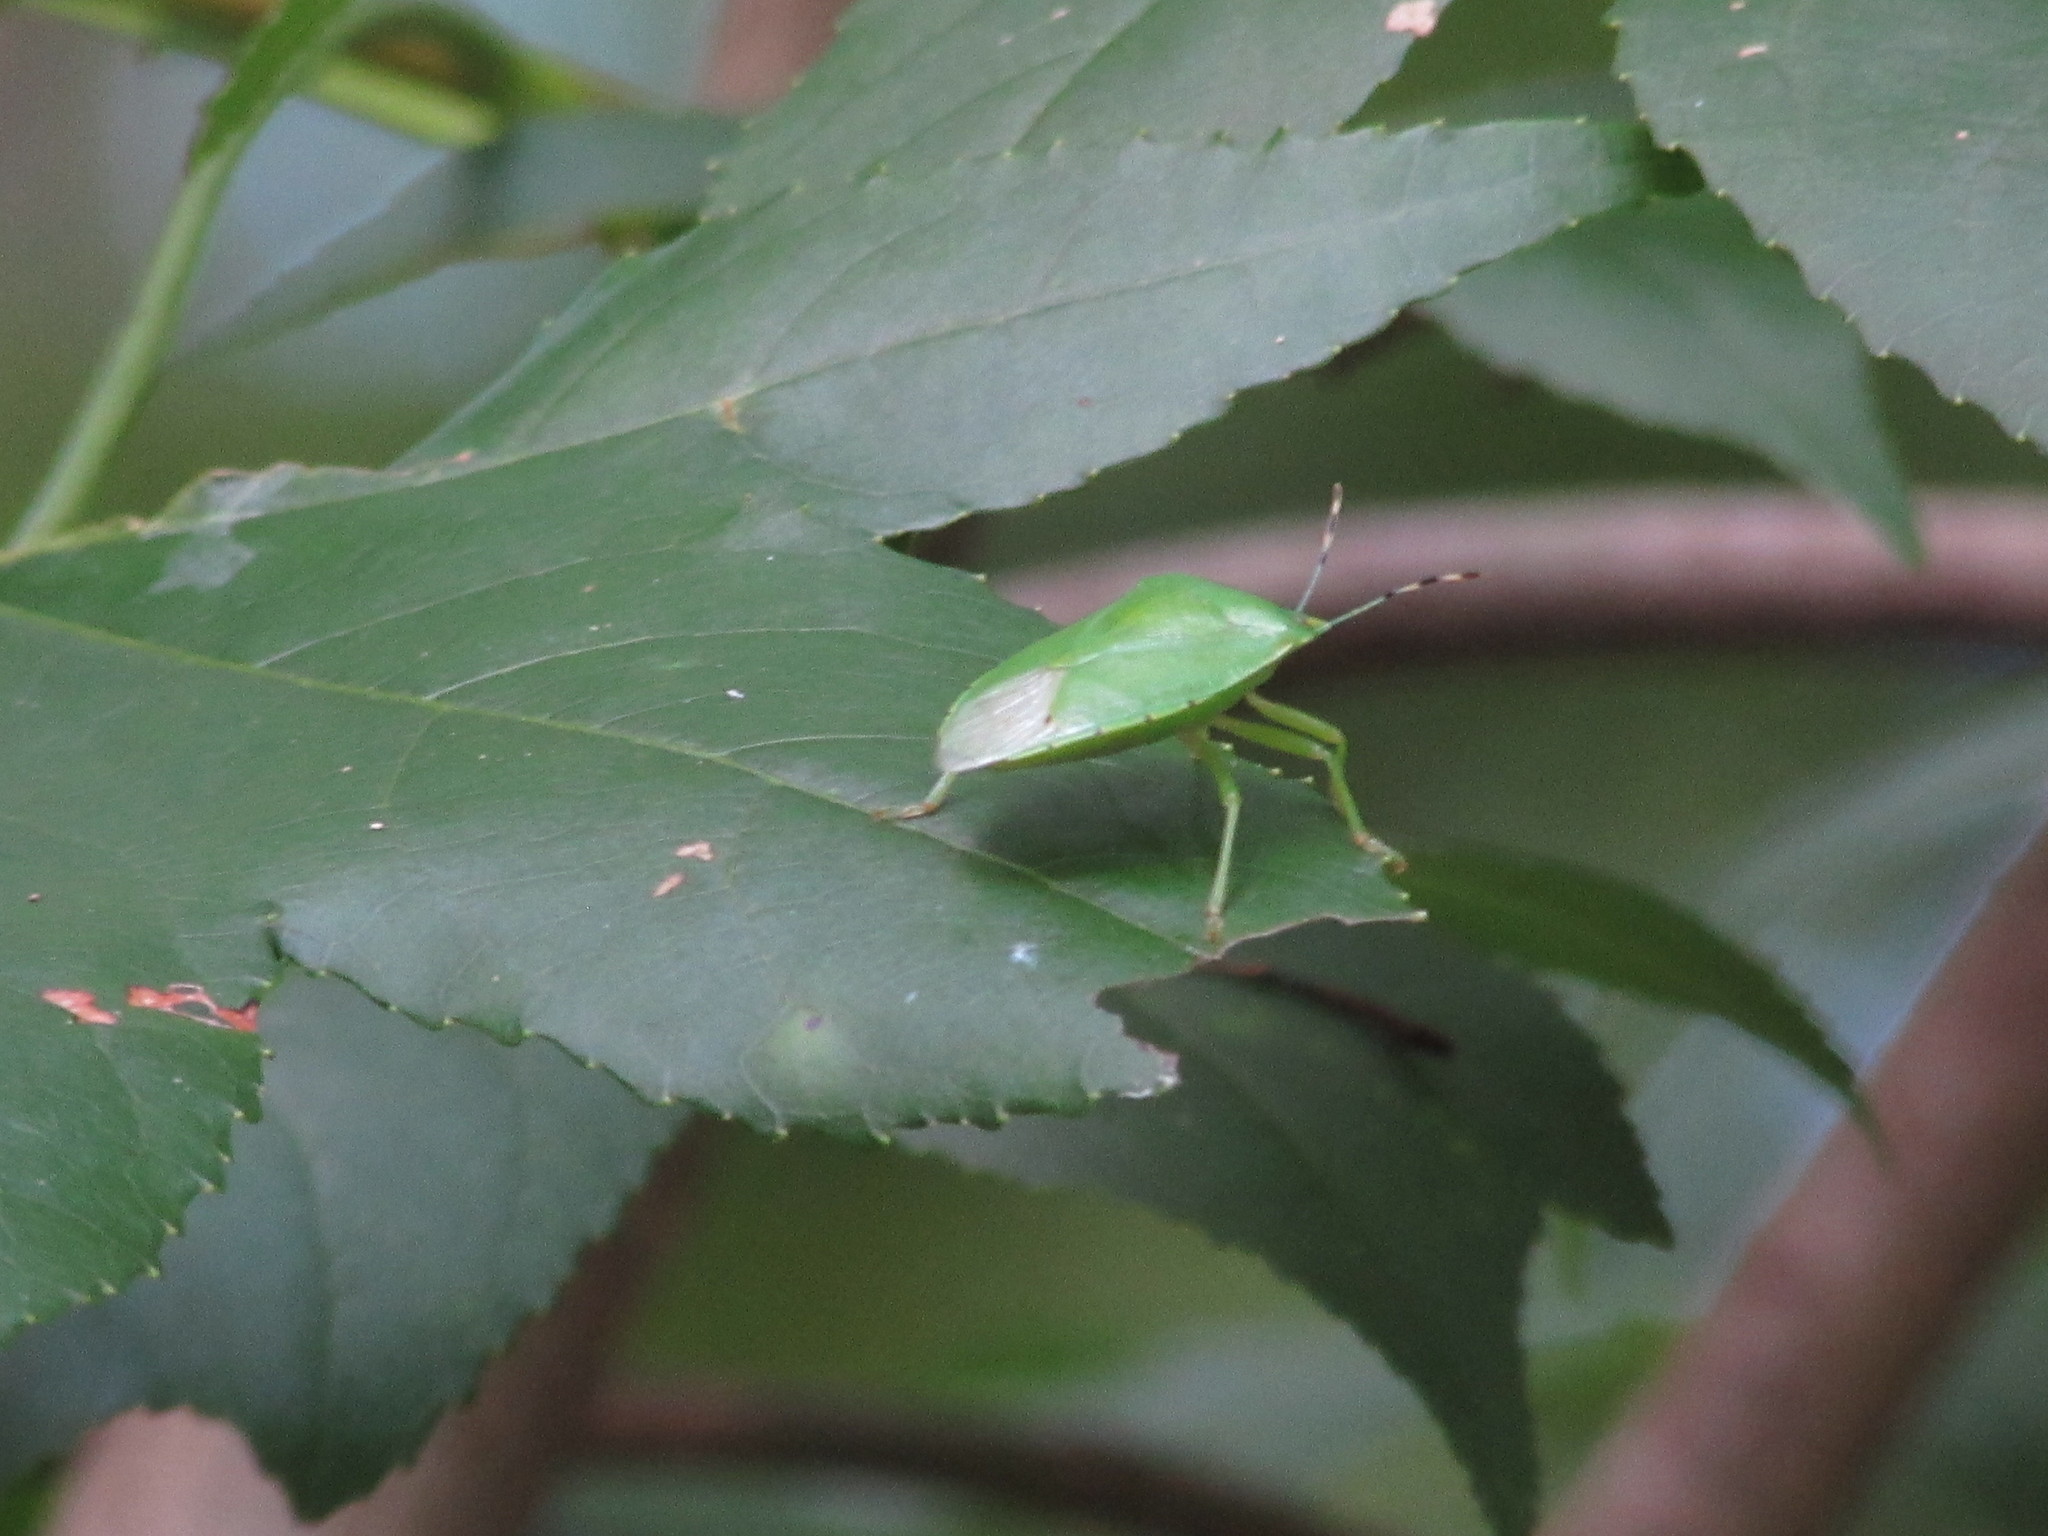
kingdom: Animalia
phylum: Arthropoda
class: Insecta
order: Hemiptera
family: Pentatomidae
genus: Chinavia
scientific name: Chinavia hilaris
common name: Green stink bug
